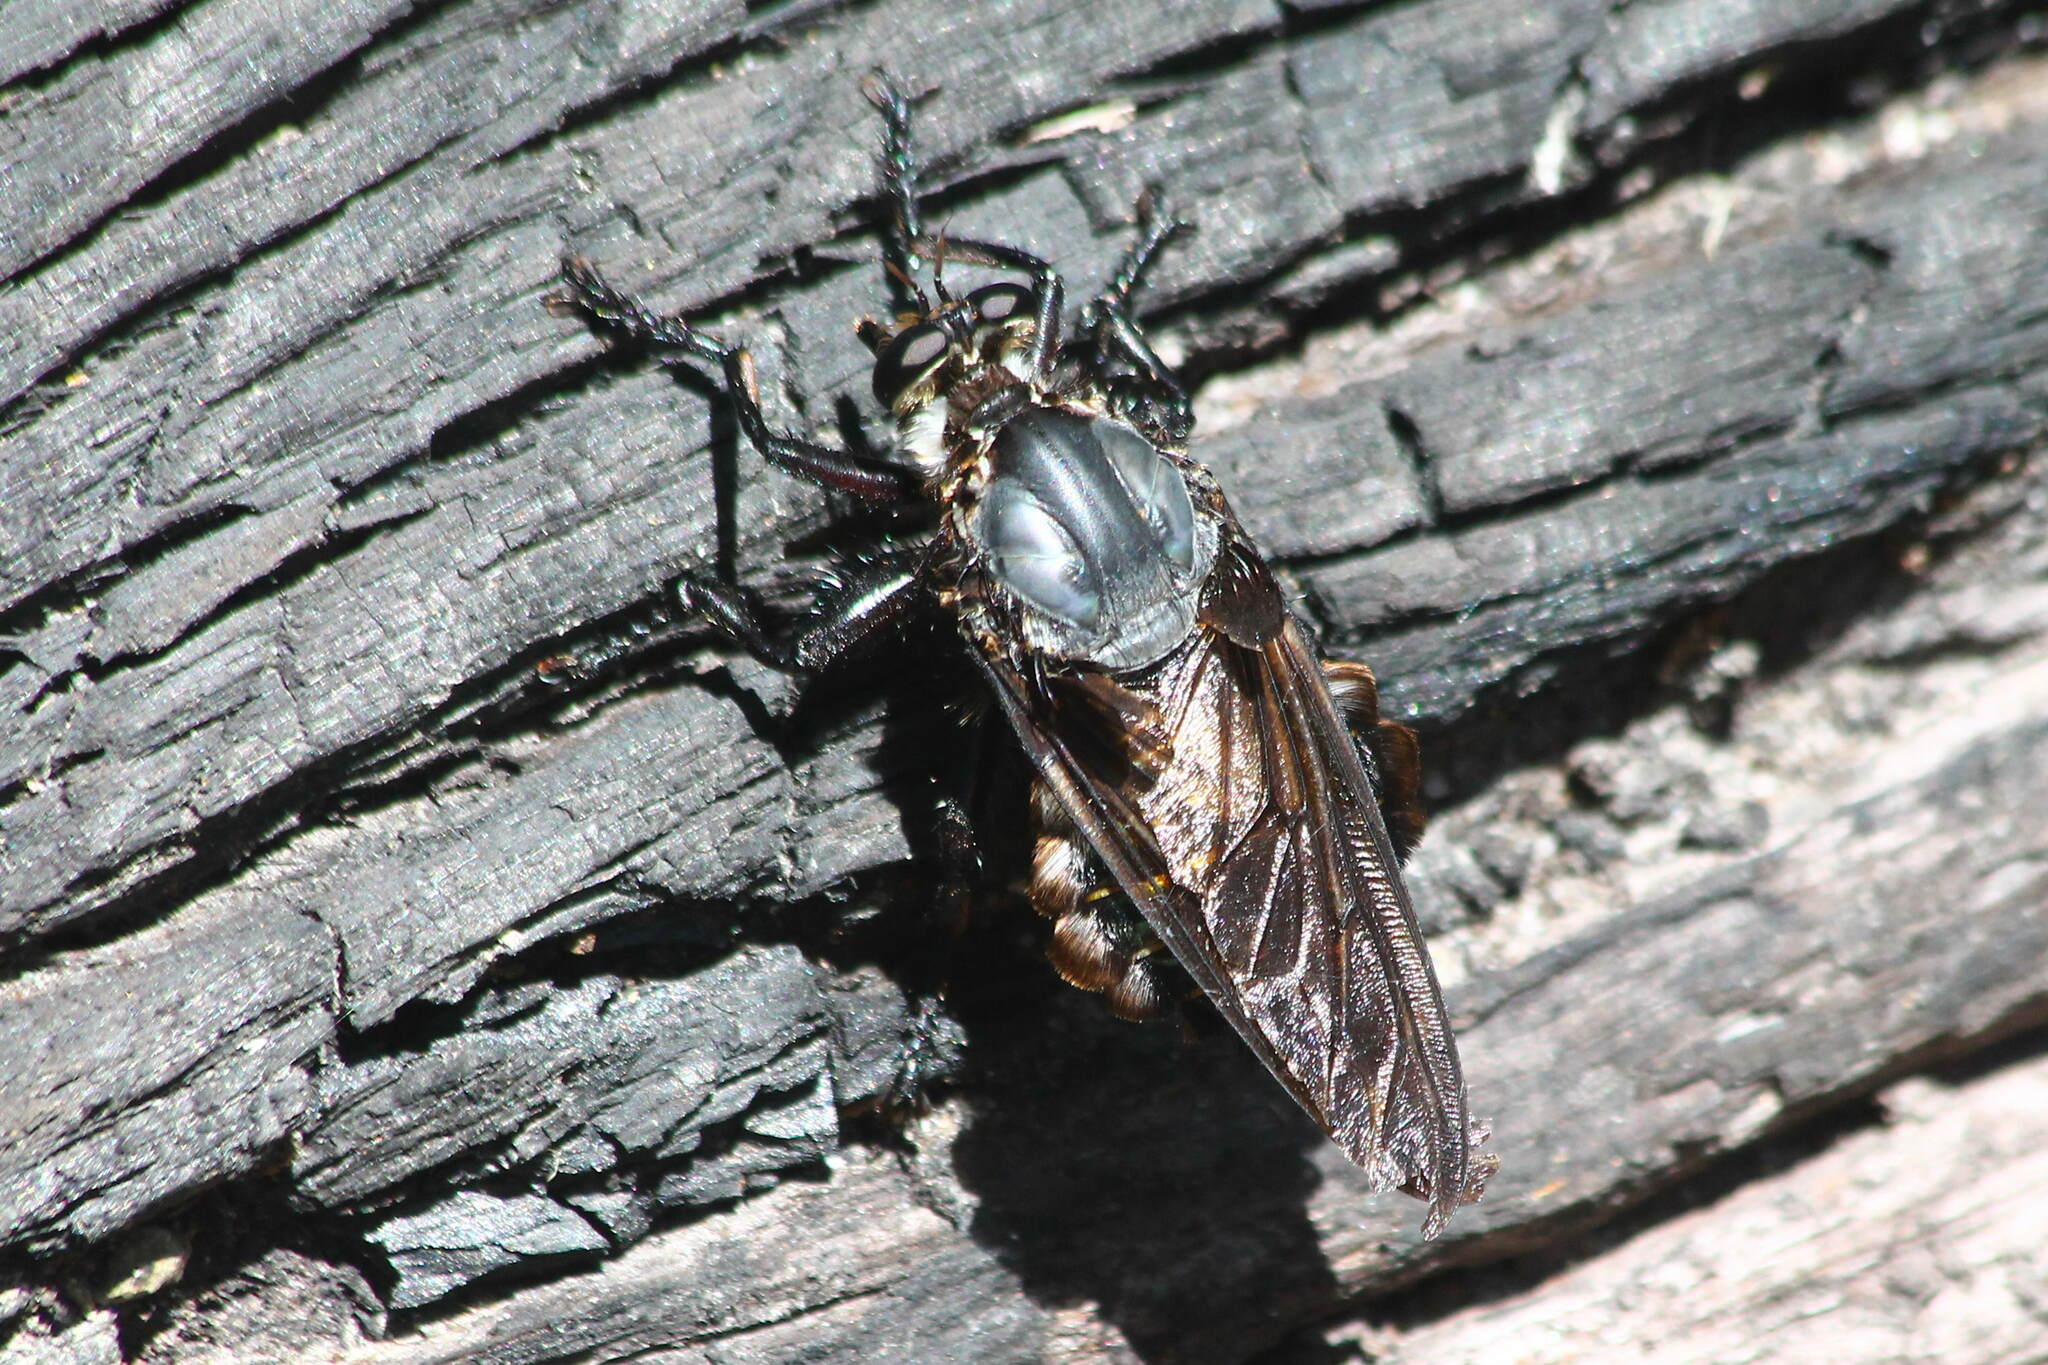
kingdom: Animalia
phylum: Arthropoda
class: Insecta
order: Diptera
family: Asilidae
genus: Blepharotes
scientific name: Blepharotes splendidissimus
